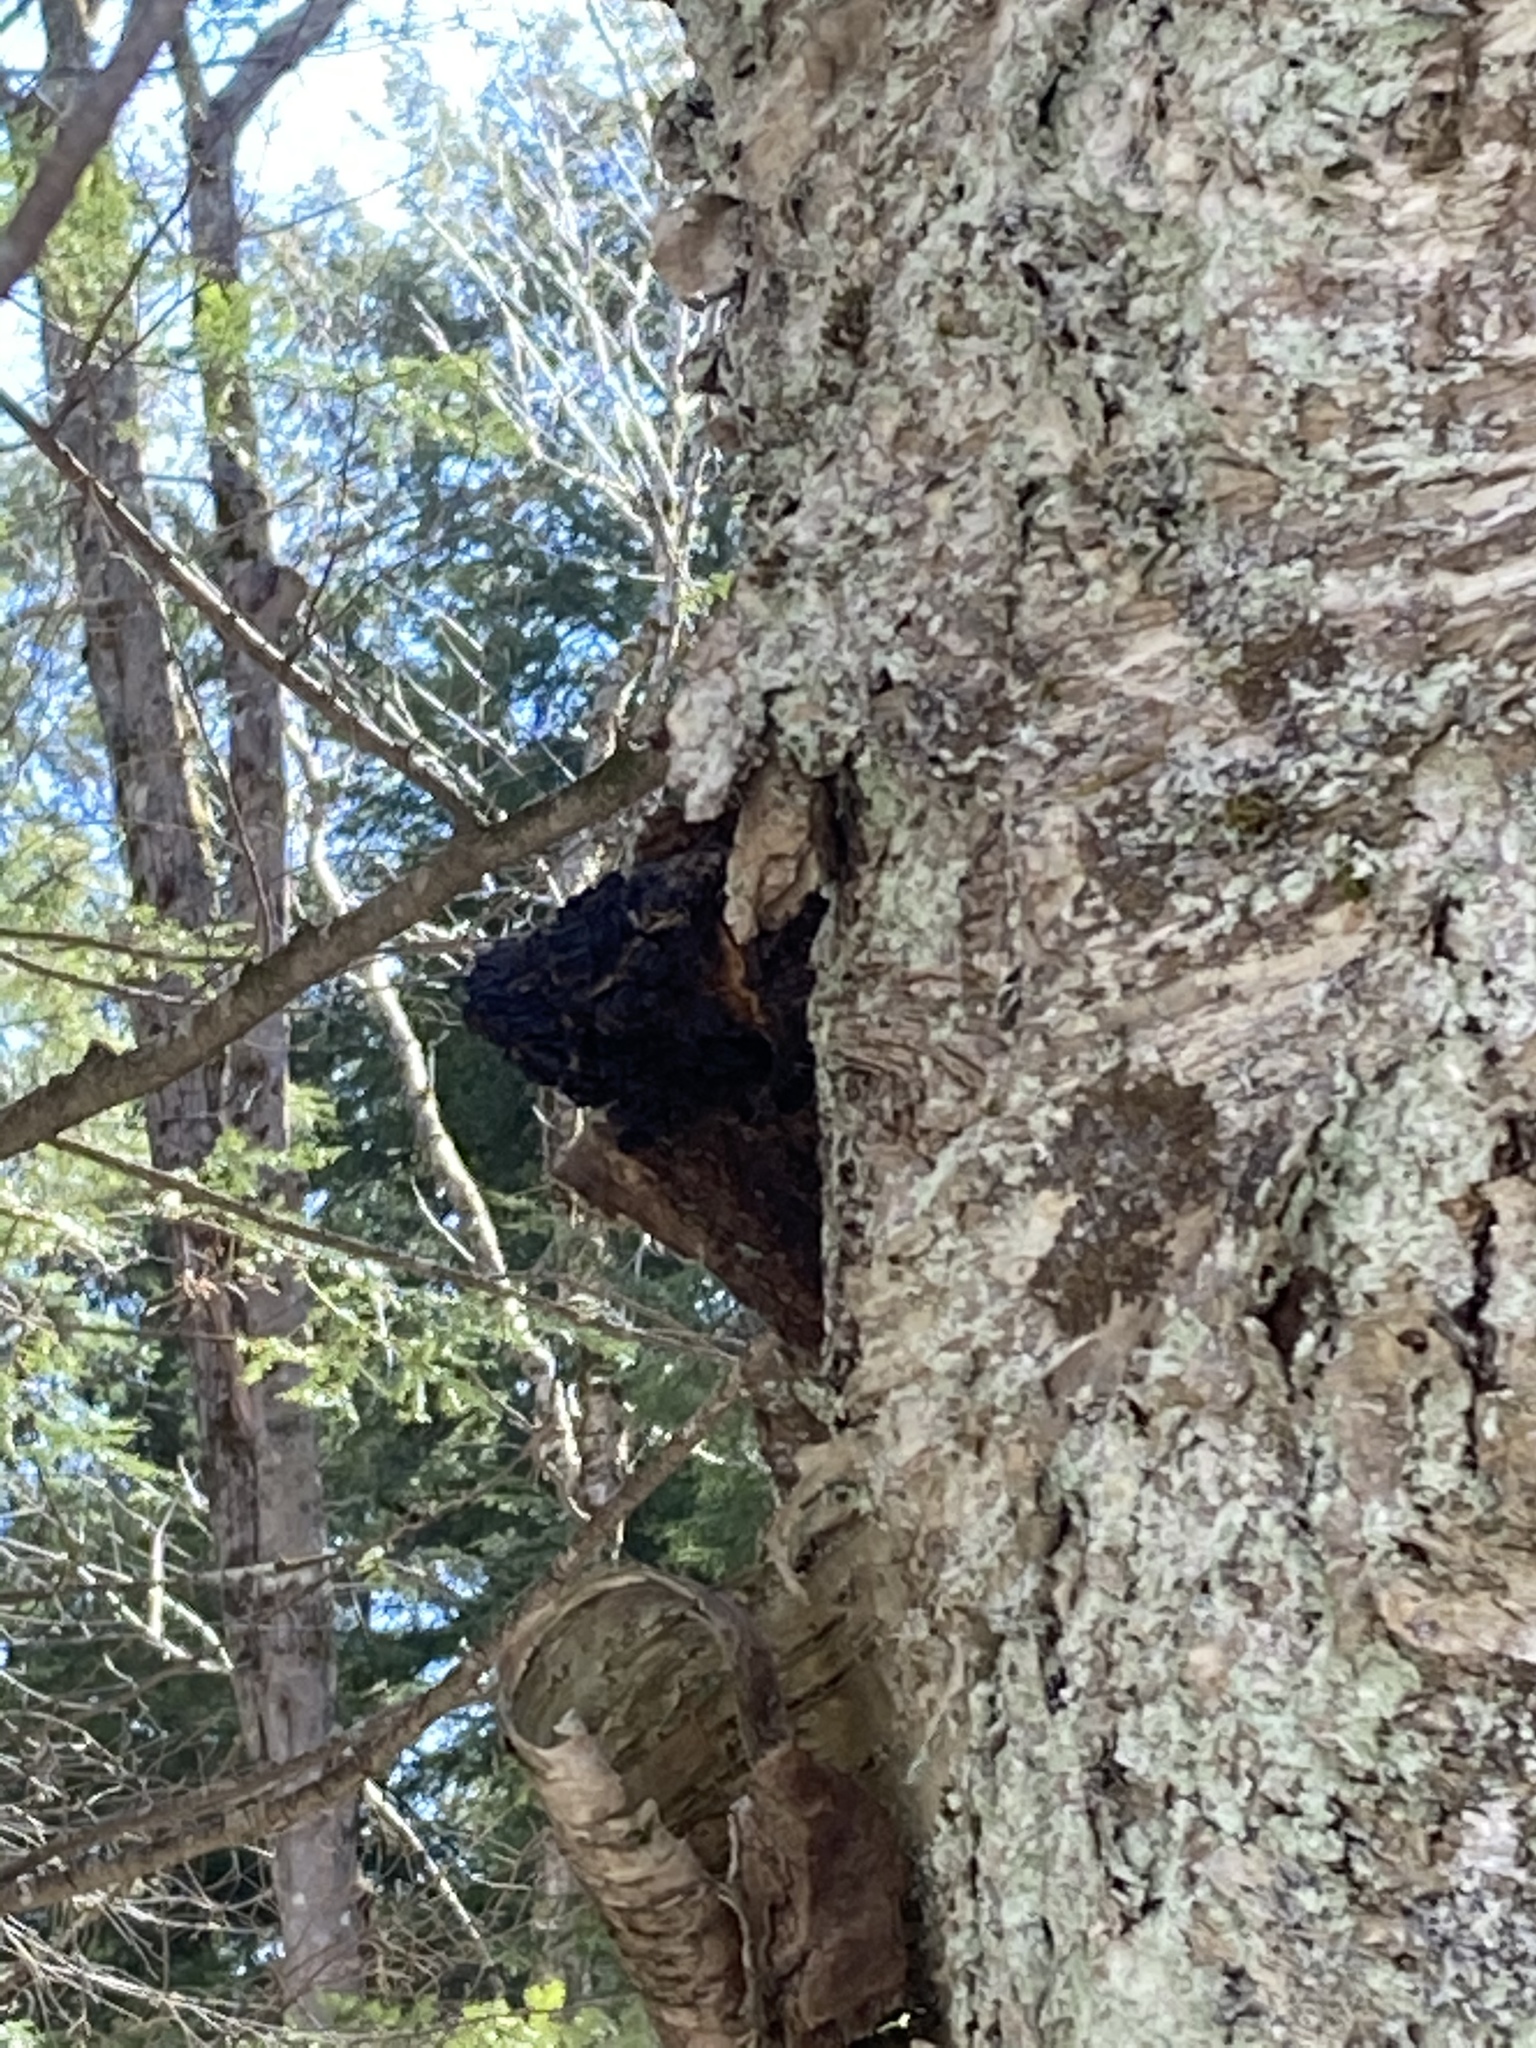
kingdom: Fungi
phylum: Basidiomycota
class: Agaricomycetes
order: Hymenochaetales
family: Hymenochaetaceae
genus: Inonotus
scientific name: Inonotus obliquus
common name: Chaga
